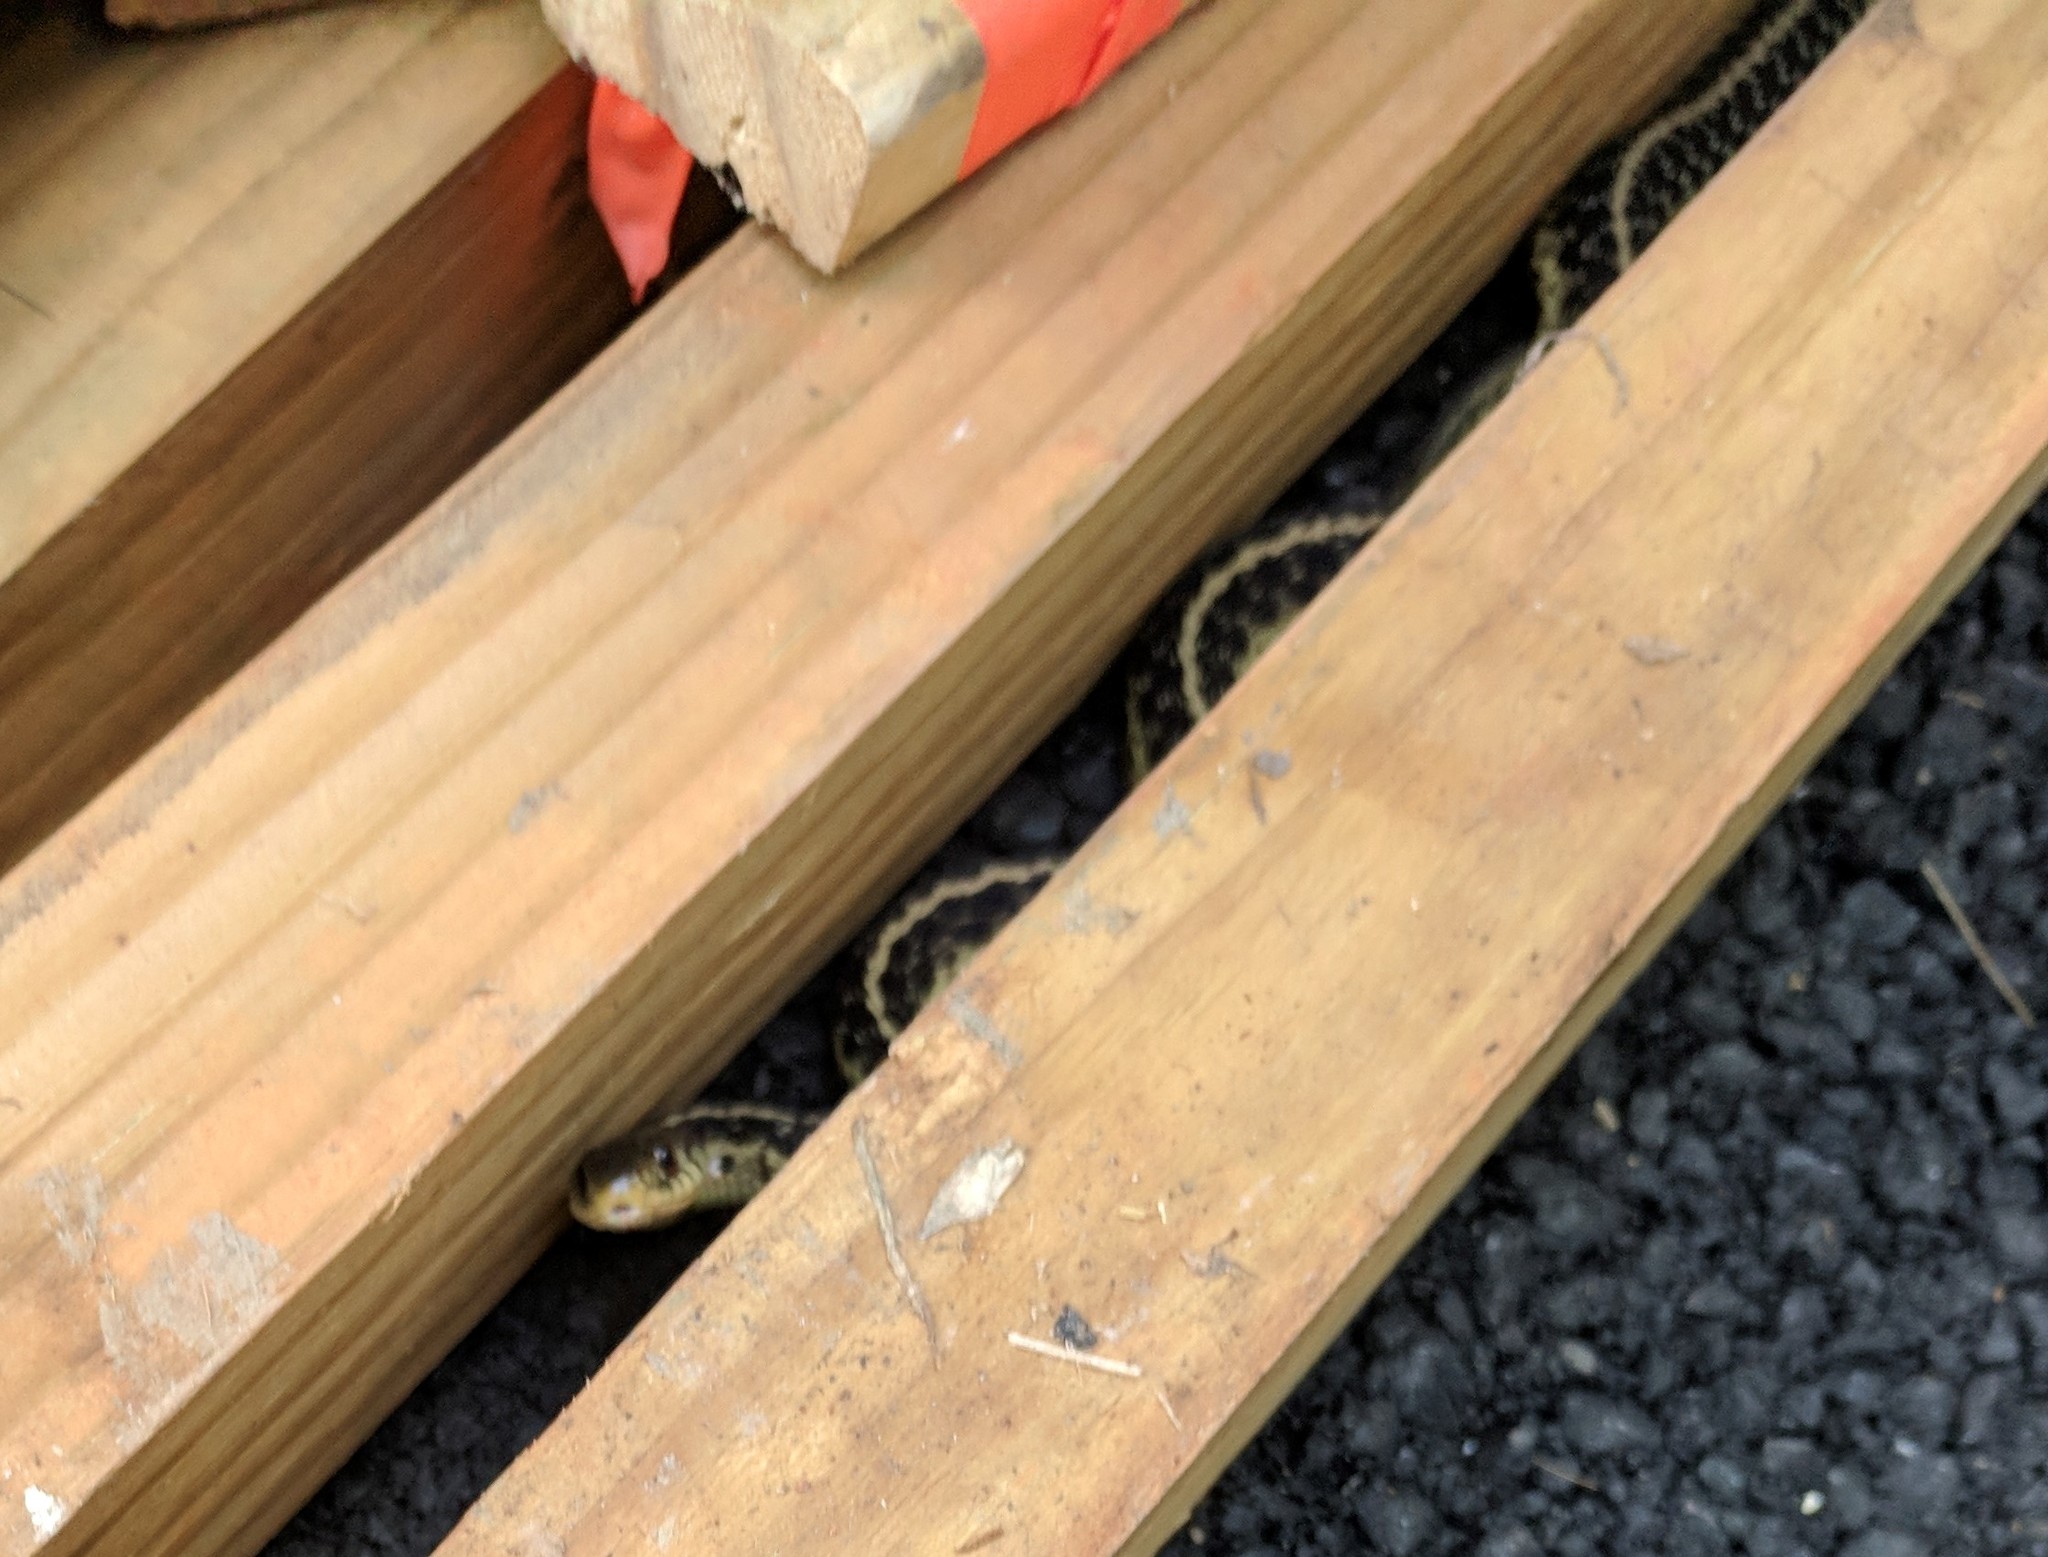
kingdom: Animalia
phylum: Chordata
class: Squamata
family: Colubridae
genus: Thamnophis
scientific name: Thamnophis sirtalis
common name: Common garter snake
